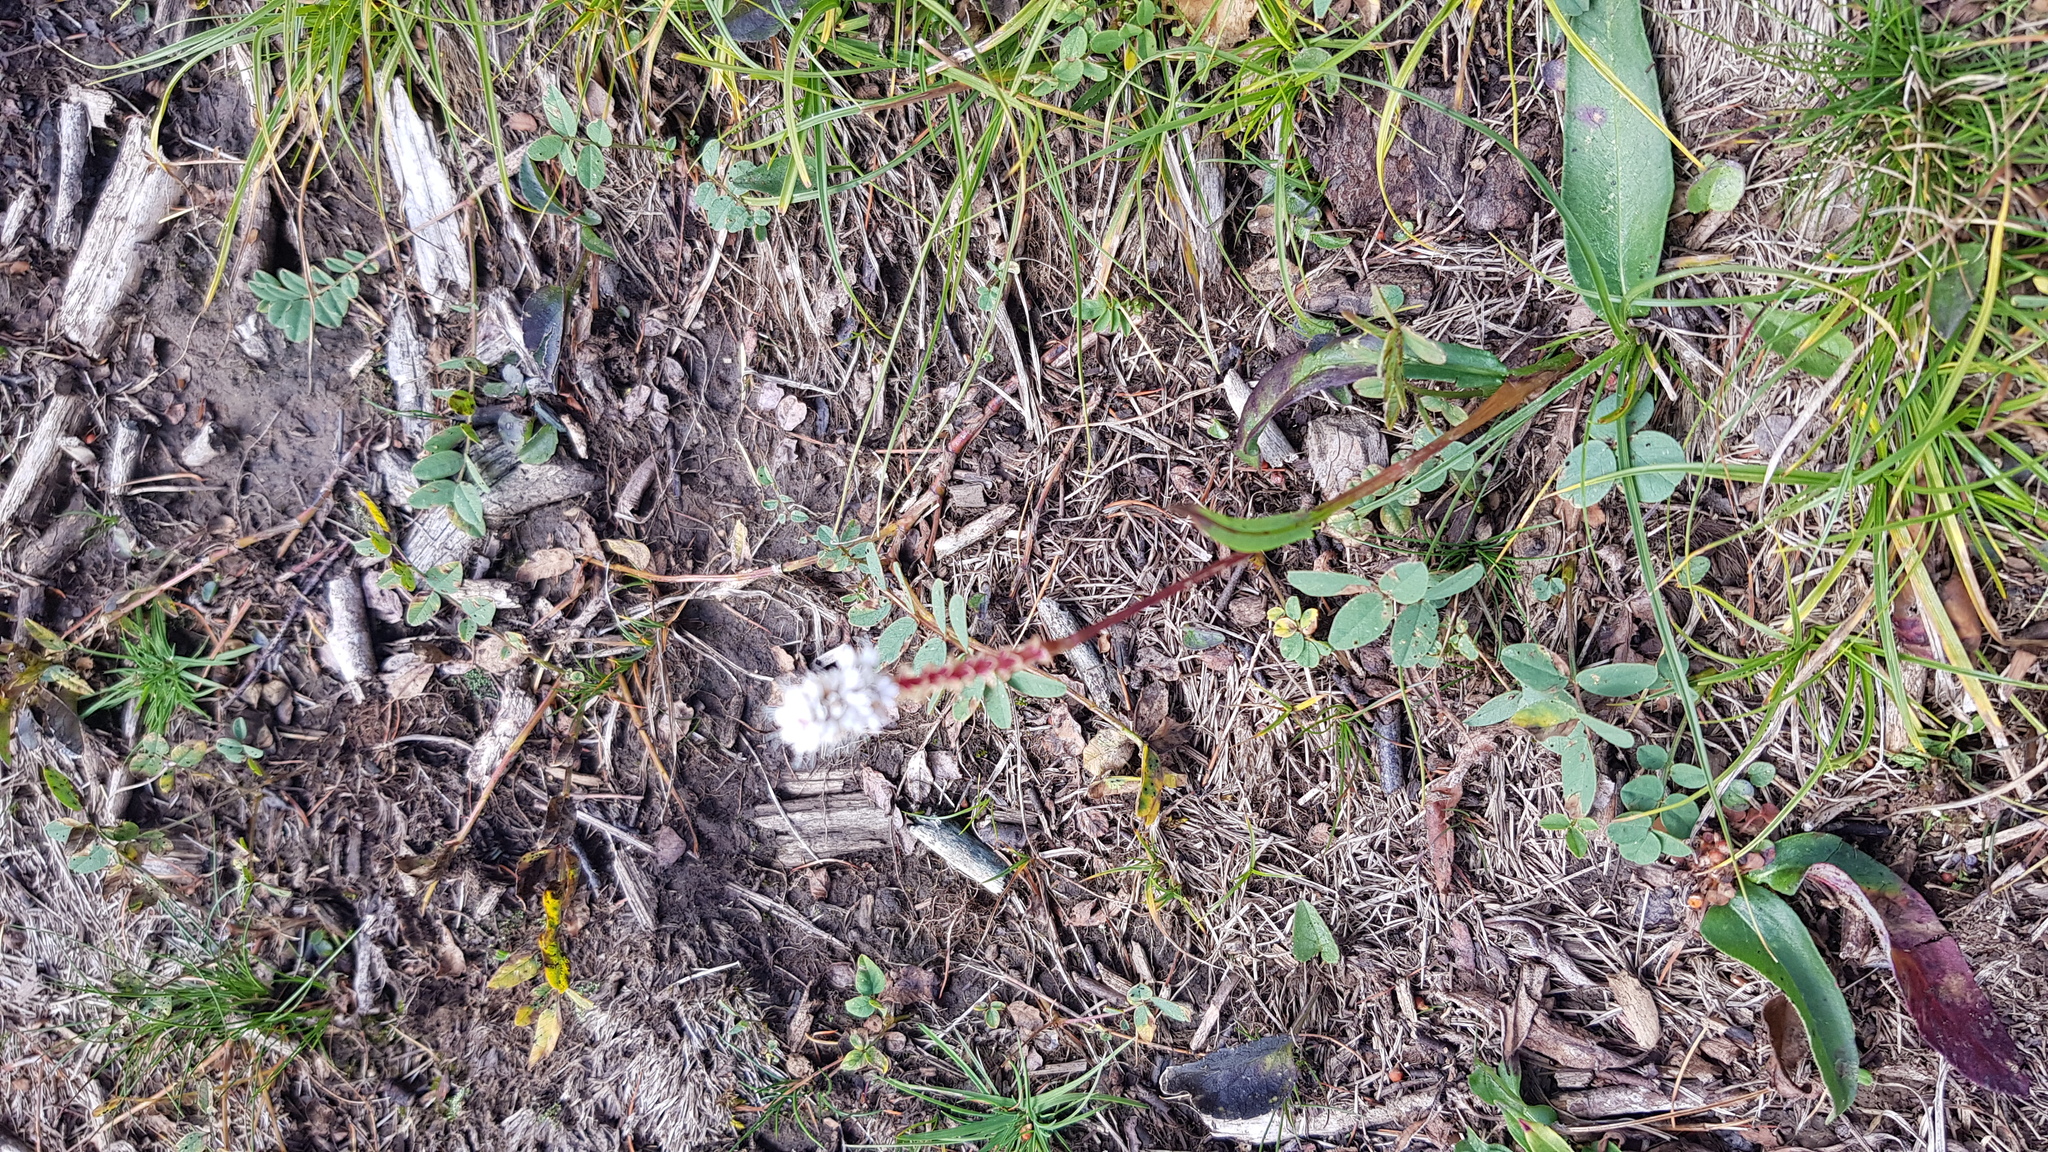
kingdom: Plantae
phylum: Tracheophyta
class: Magnoliopsida
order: Caryophyllales
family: Polygonaceae
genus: Bistorta
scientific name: Bistorta vivipara
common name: Alpine bistort
